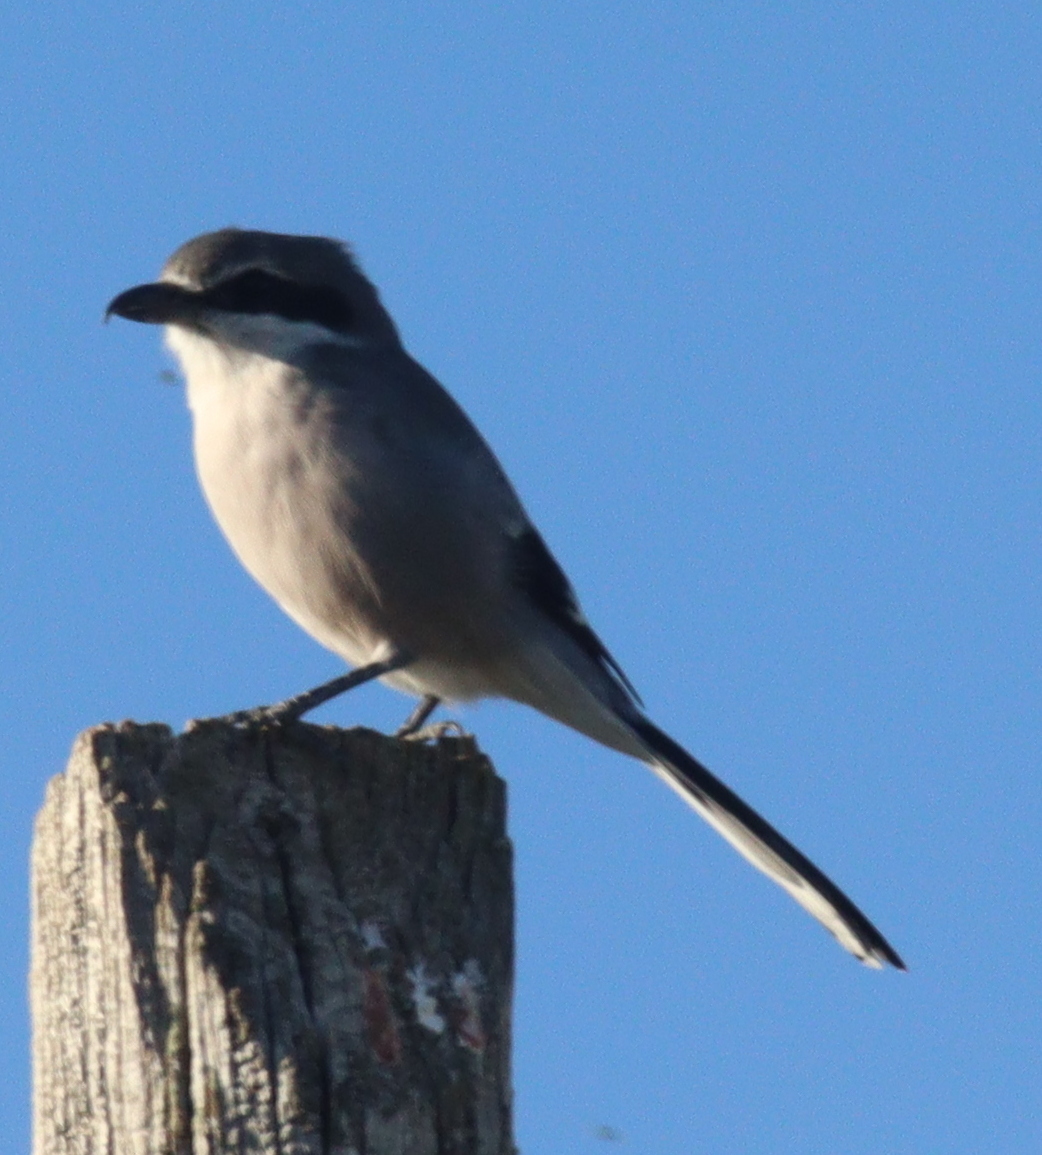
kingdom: Animalia
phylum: Chordata
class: Aves
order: Passeriformes
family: Laniidae
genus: Lanius
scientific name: Lanius meridionalis
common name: Iberian grey shrike
